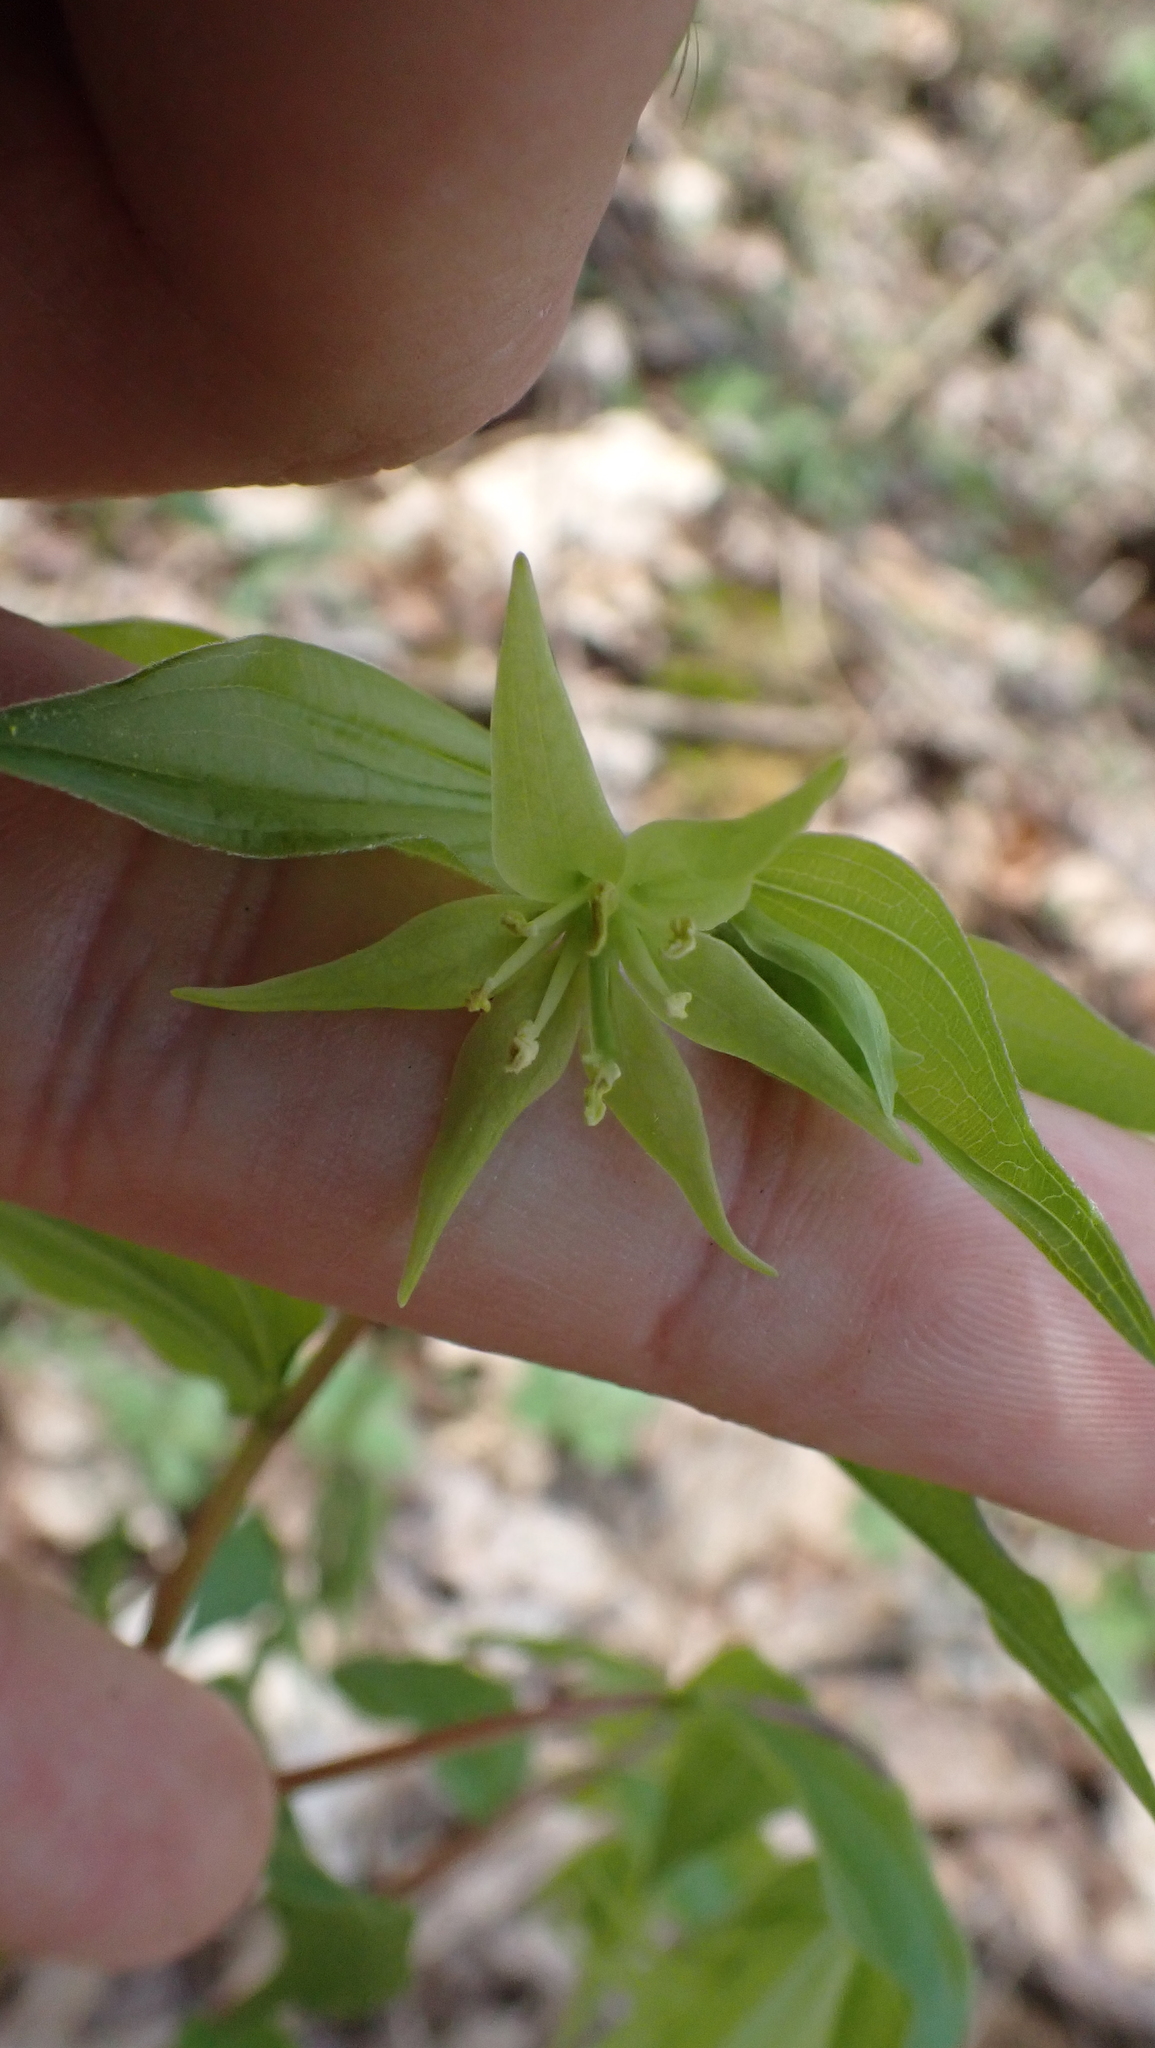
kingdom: Plantae
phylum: Tracheophyta
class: Liliopsida
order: Liliales
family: Liliaceae
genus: Prosartes
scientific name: Prosartes lanuginosa
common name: Hairy mandarin
